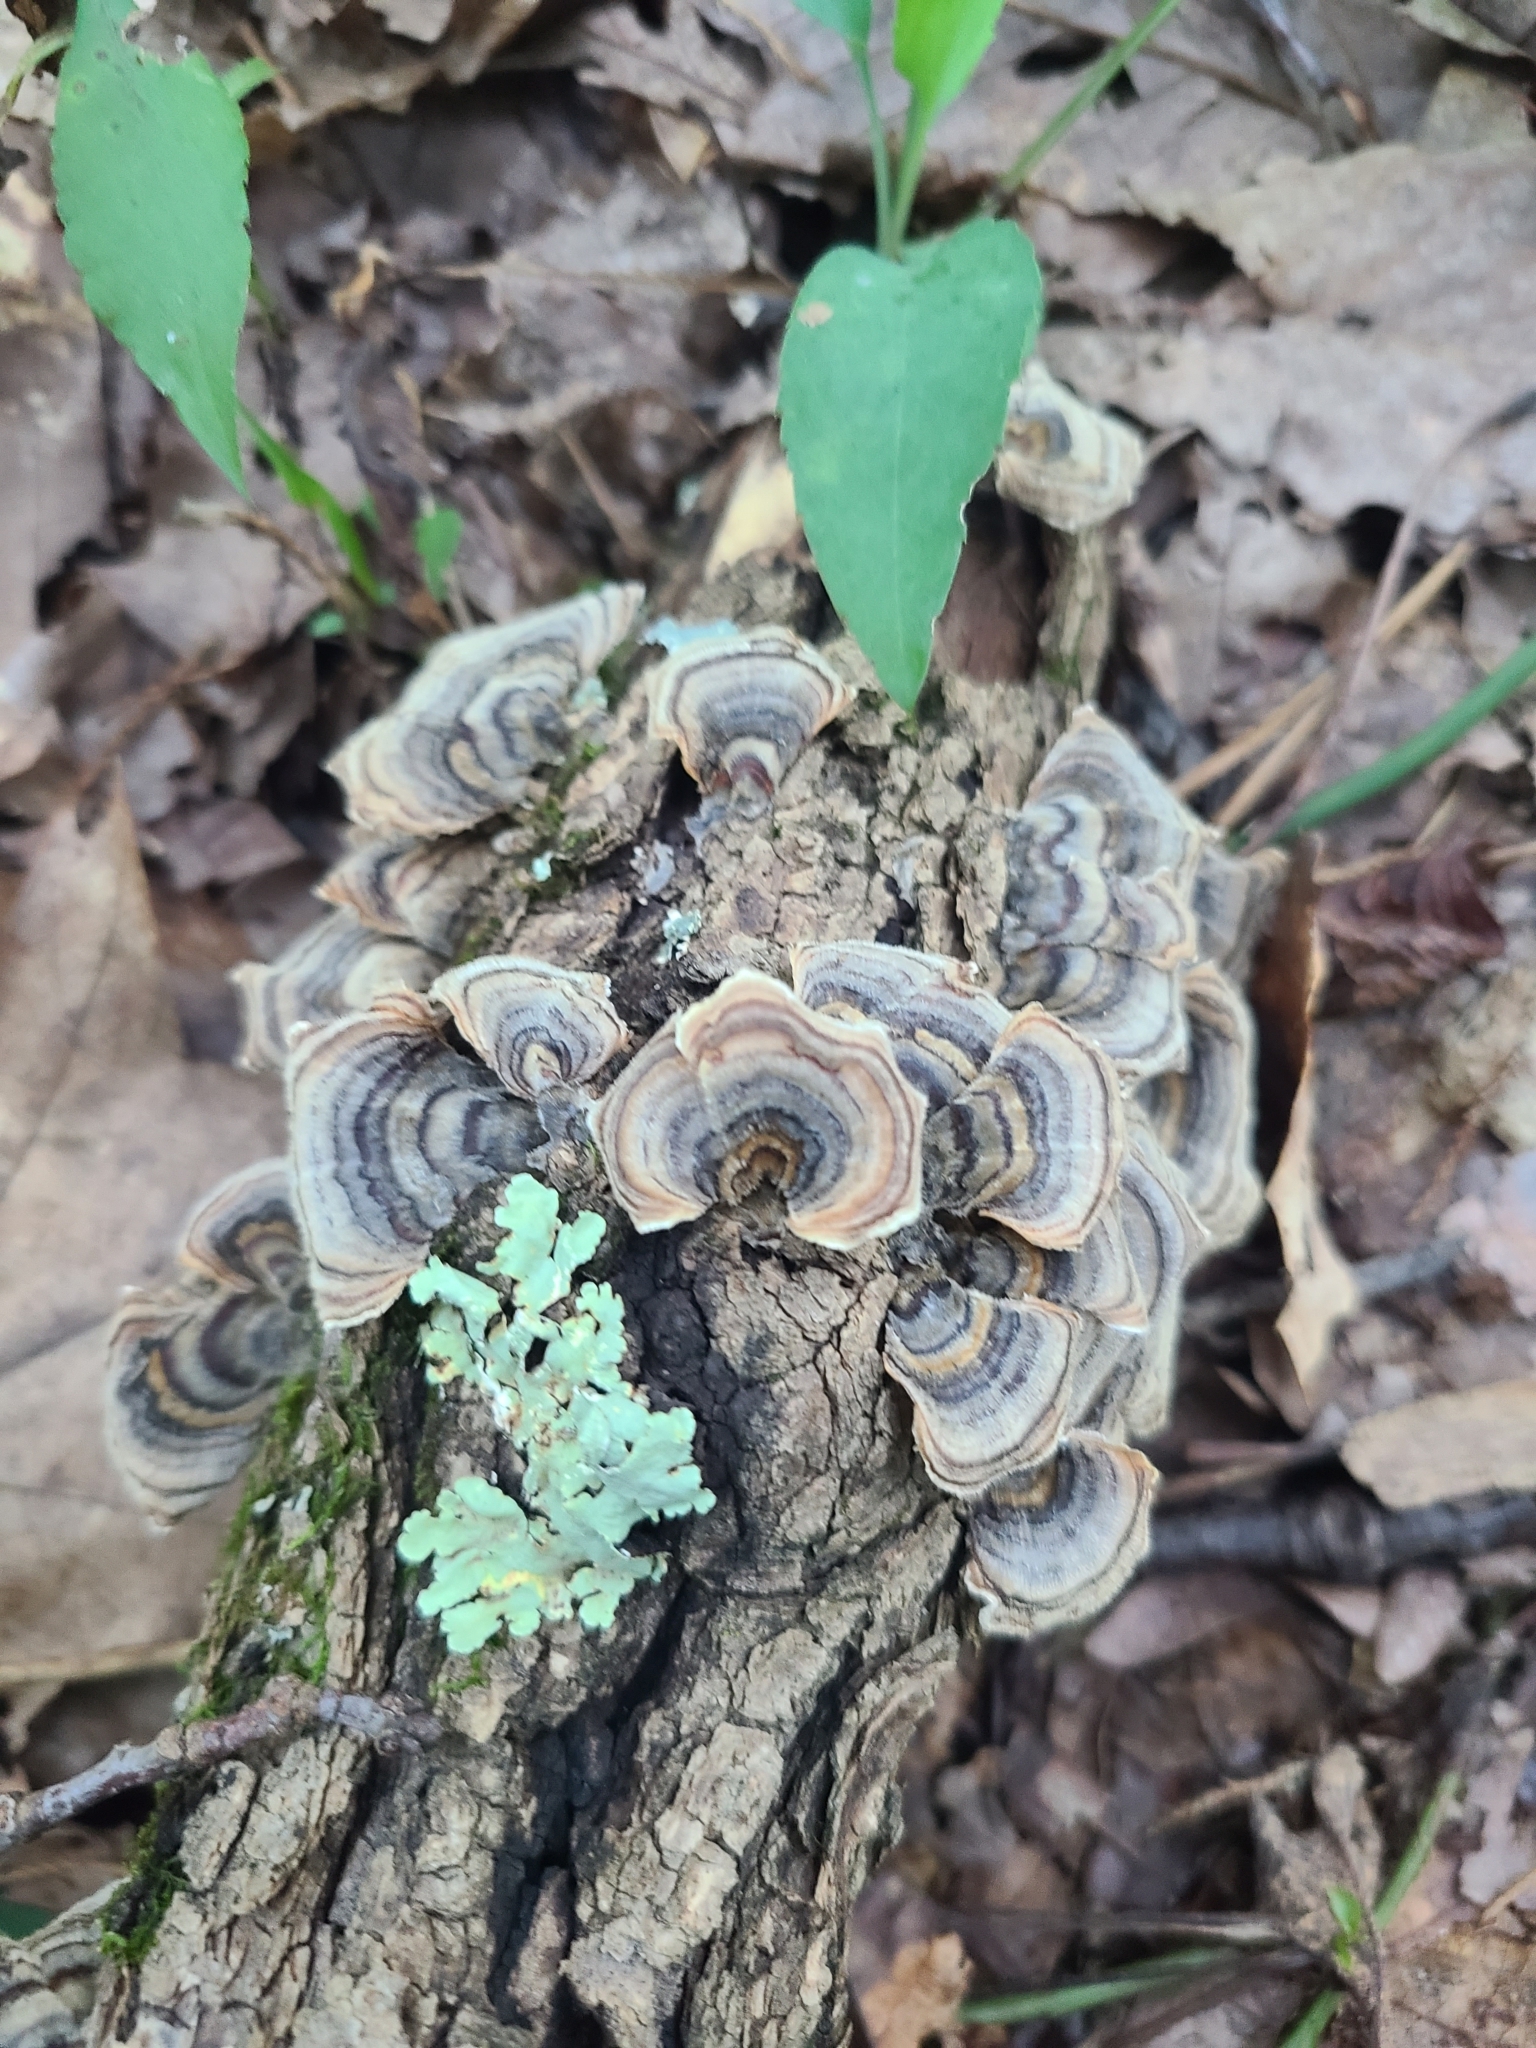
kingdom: Fungi
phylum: Basidiomycota
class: Agaricomycetes
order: Polyporales
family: Polyporaceae
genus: Trametes
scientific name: Trametes versicolor
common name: Turkeytail
